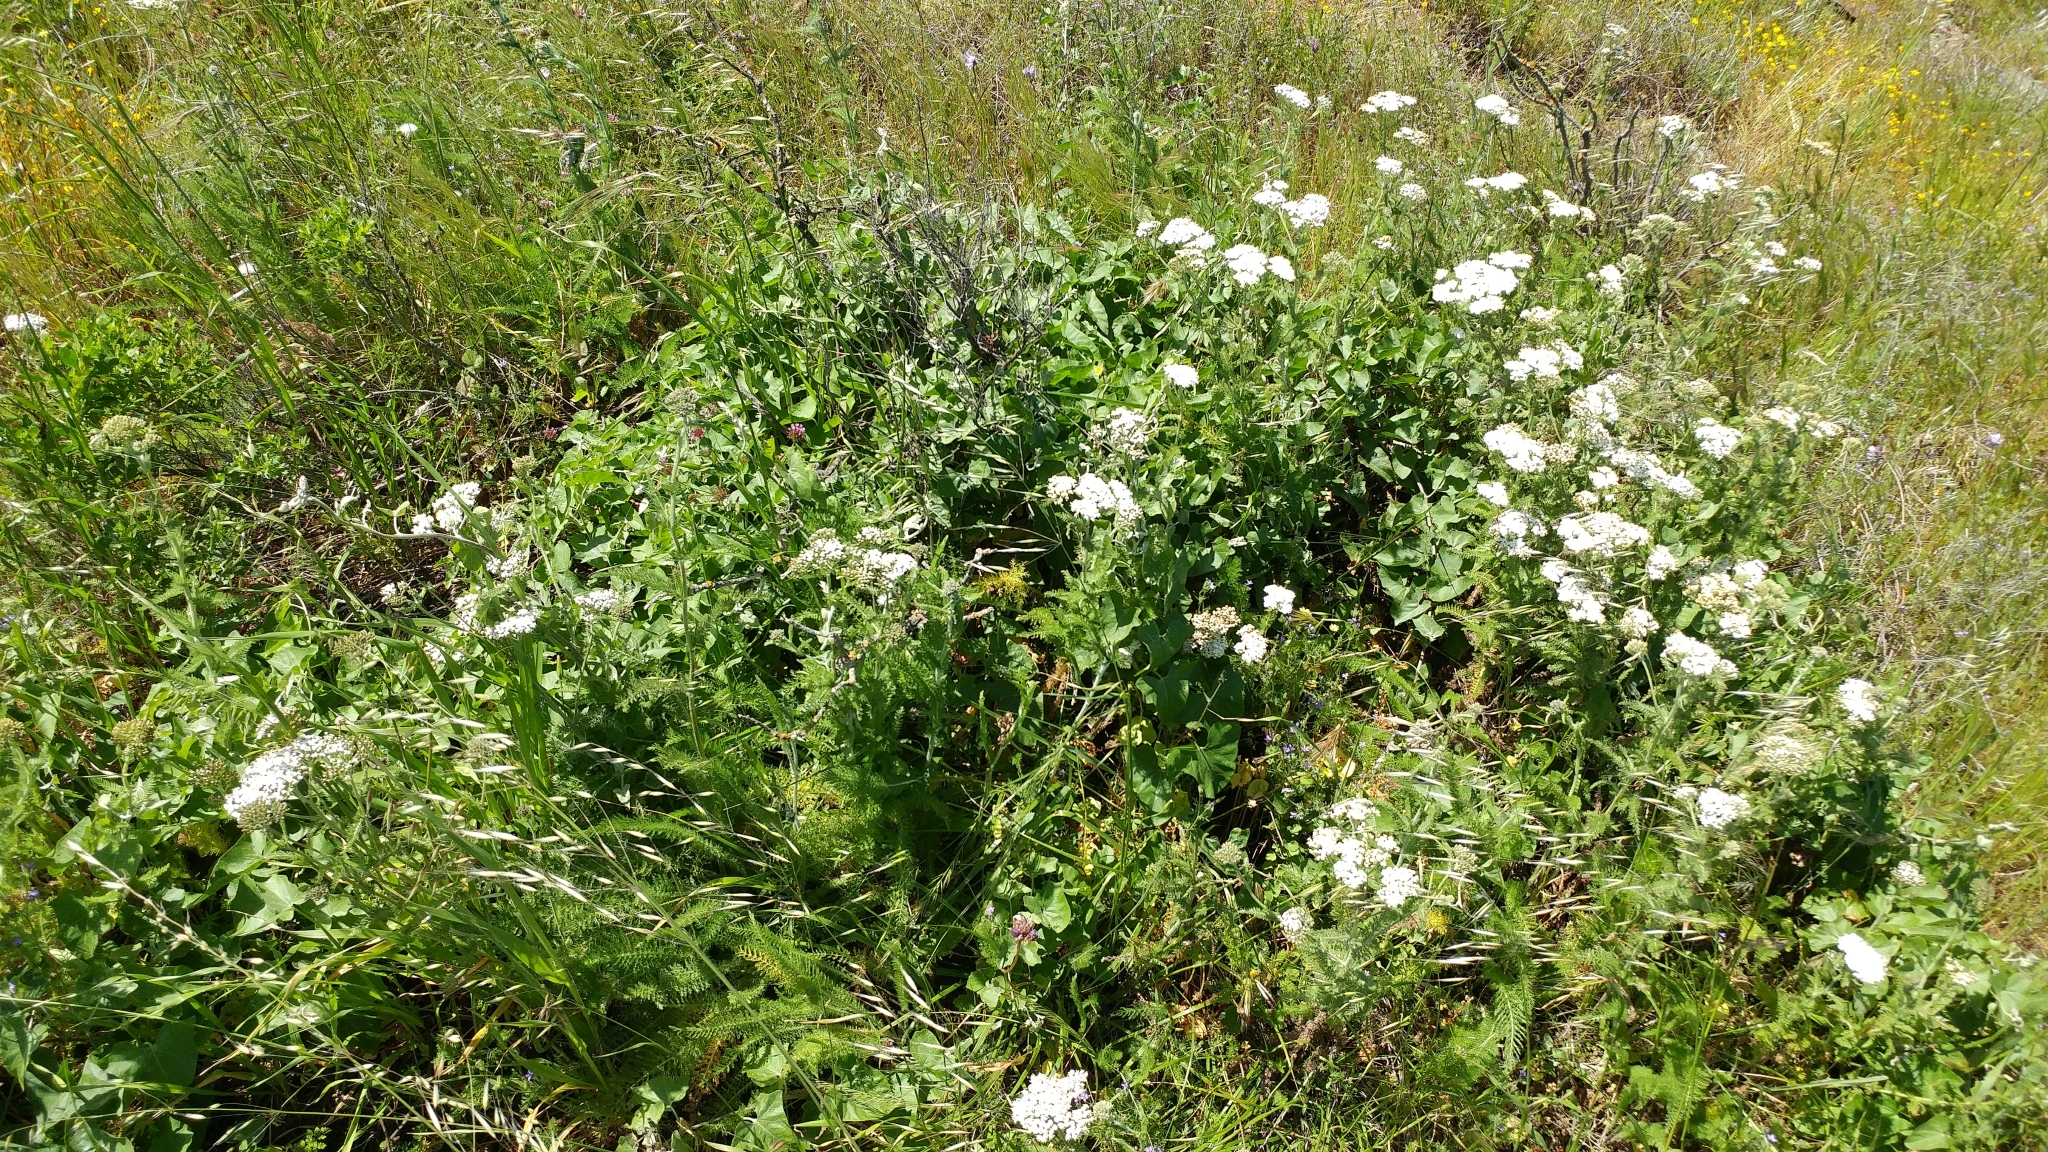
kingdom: Plantae
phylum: Tracheophyta
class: Magnoliopsida
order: Asterales
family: Asteraceae
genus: Achillea
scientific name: Achillea millefolium
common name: Yarrow
